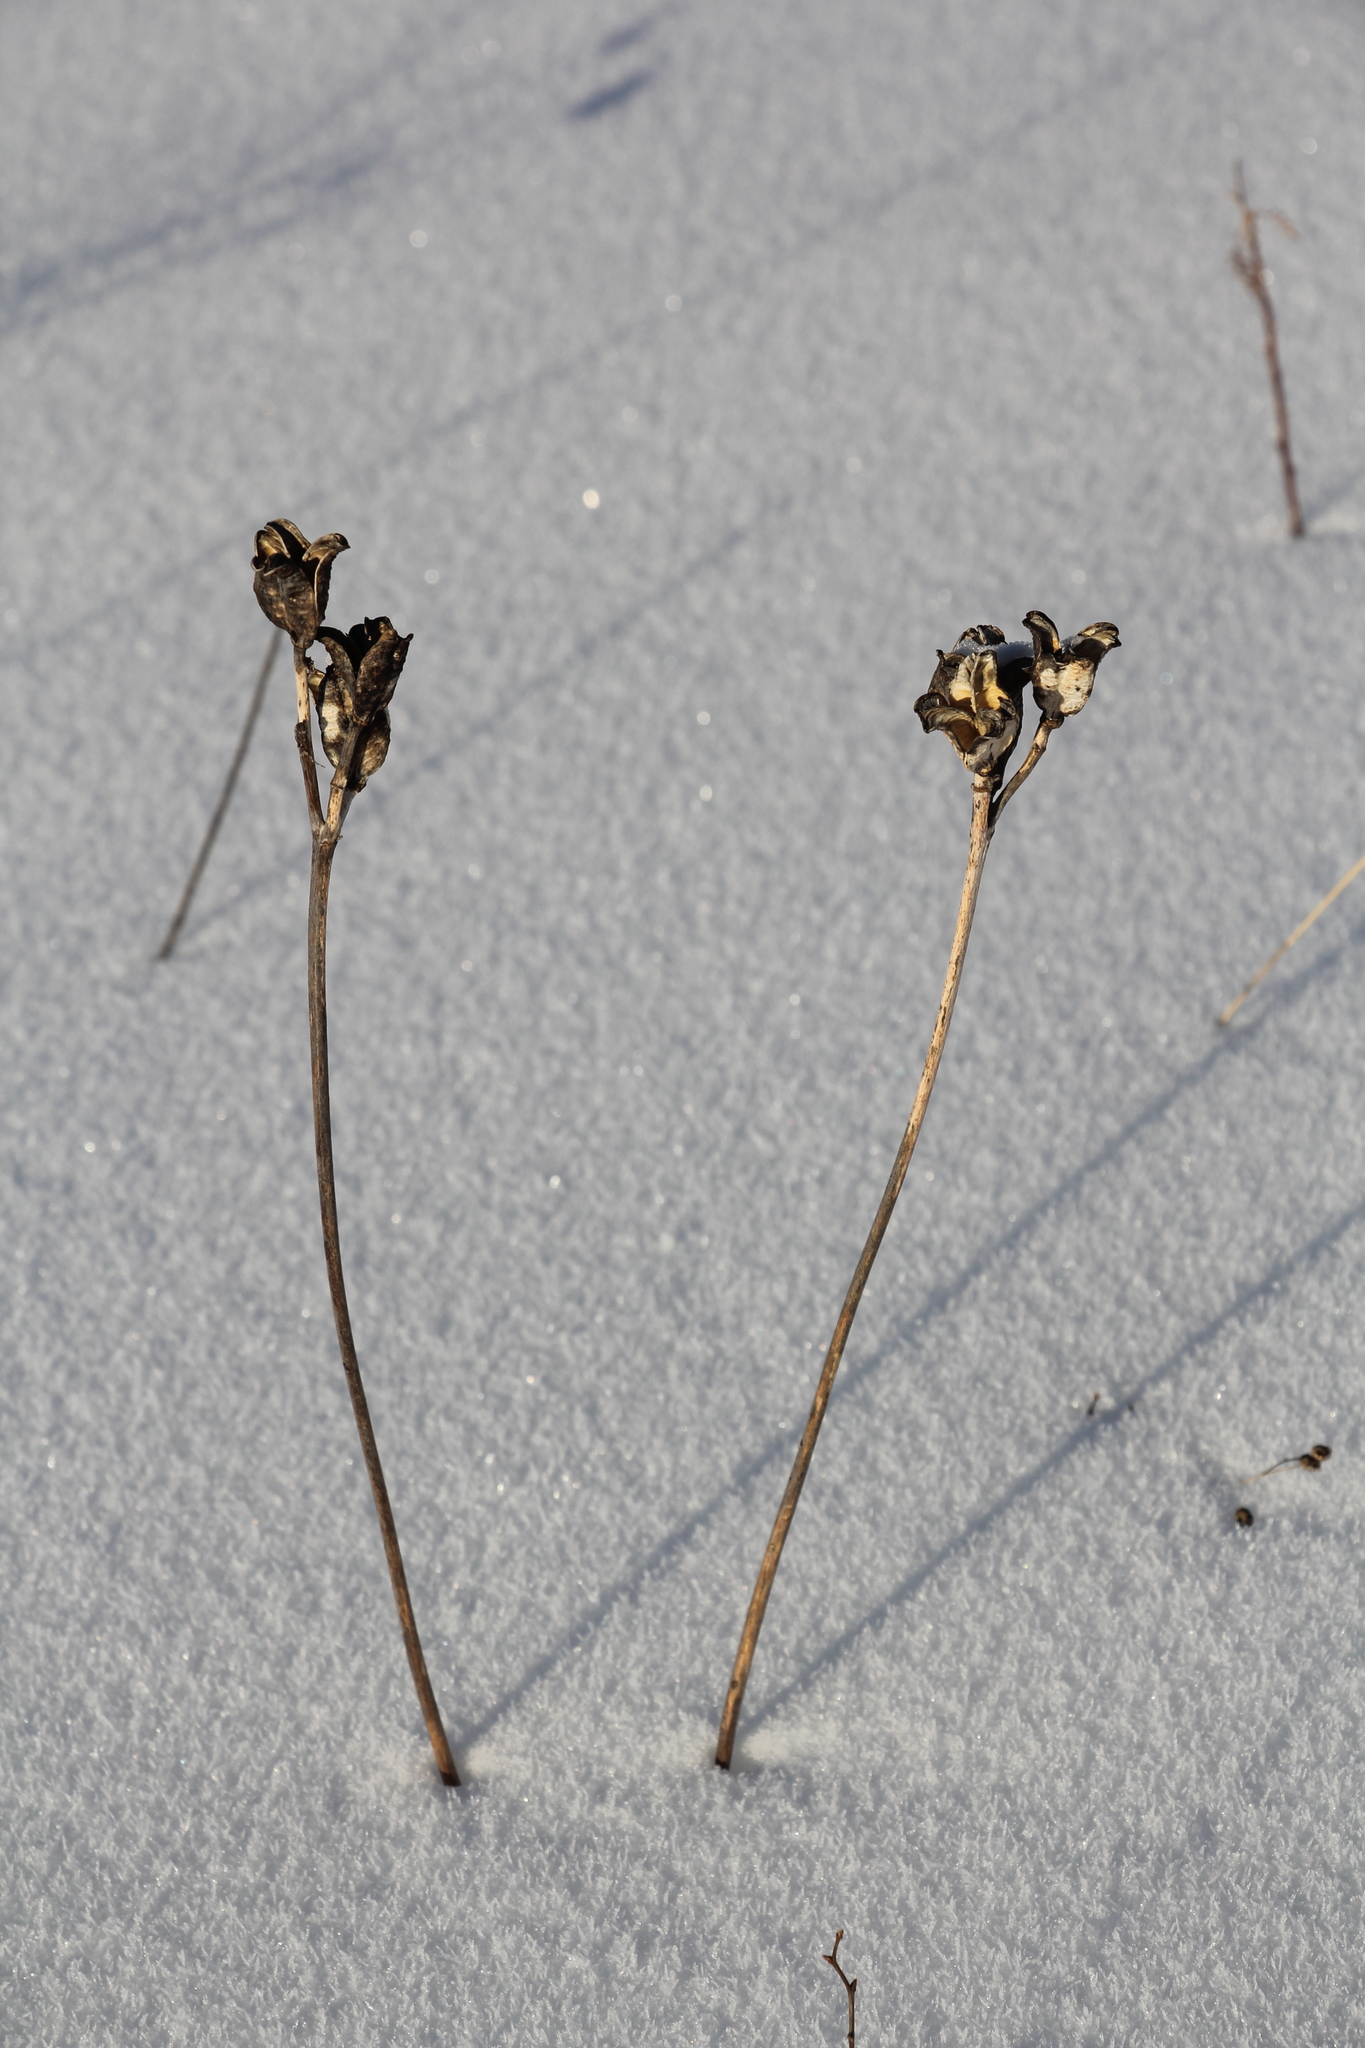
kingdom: Plantae
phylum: Tracheophyta
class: Liliopsida
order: Asparagales
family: Asphodelaceae
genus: Hemerocallis
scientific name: Hemerocallis minor
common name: Small daylily
